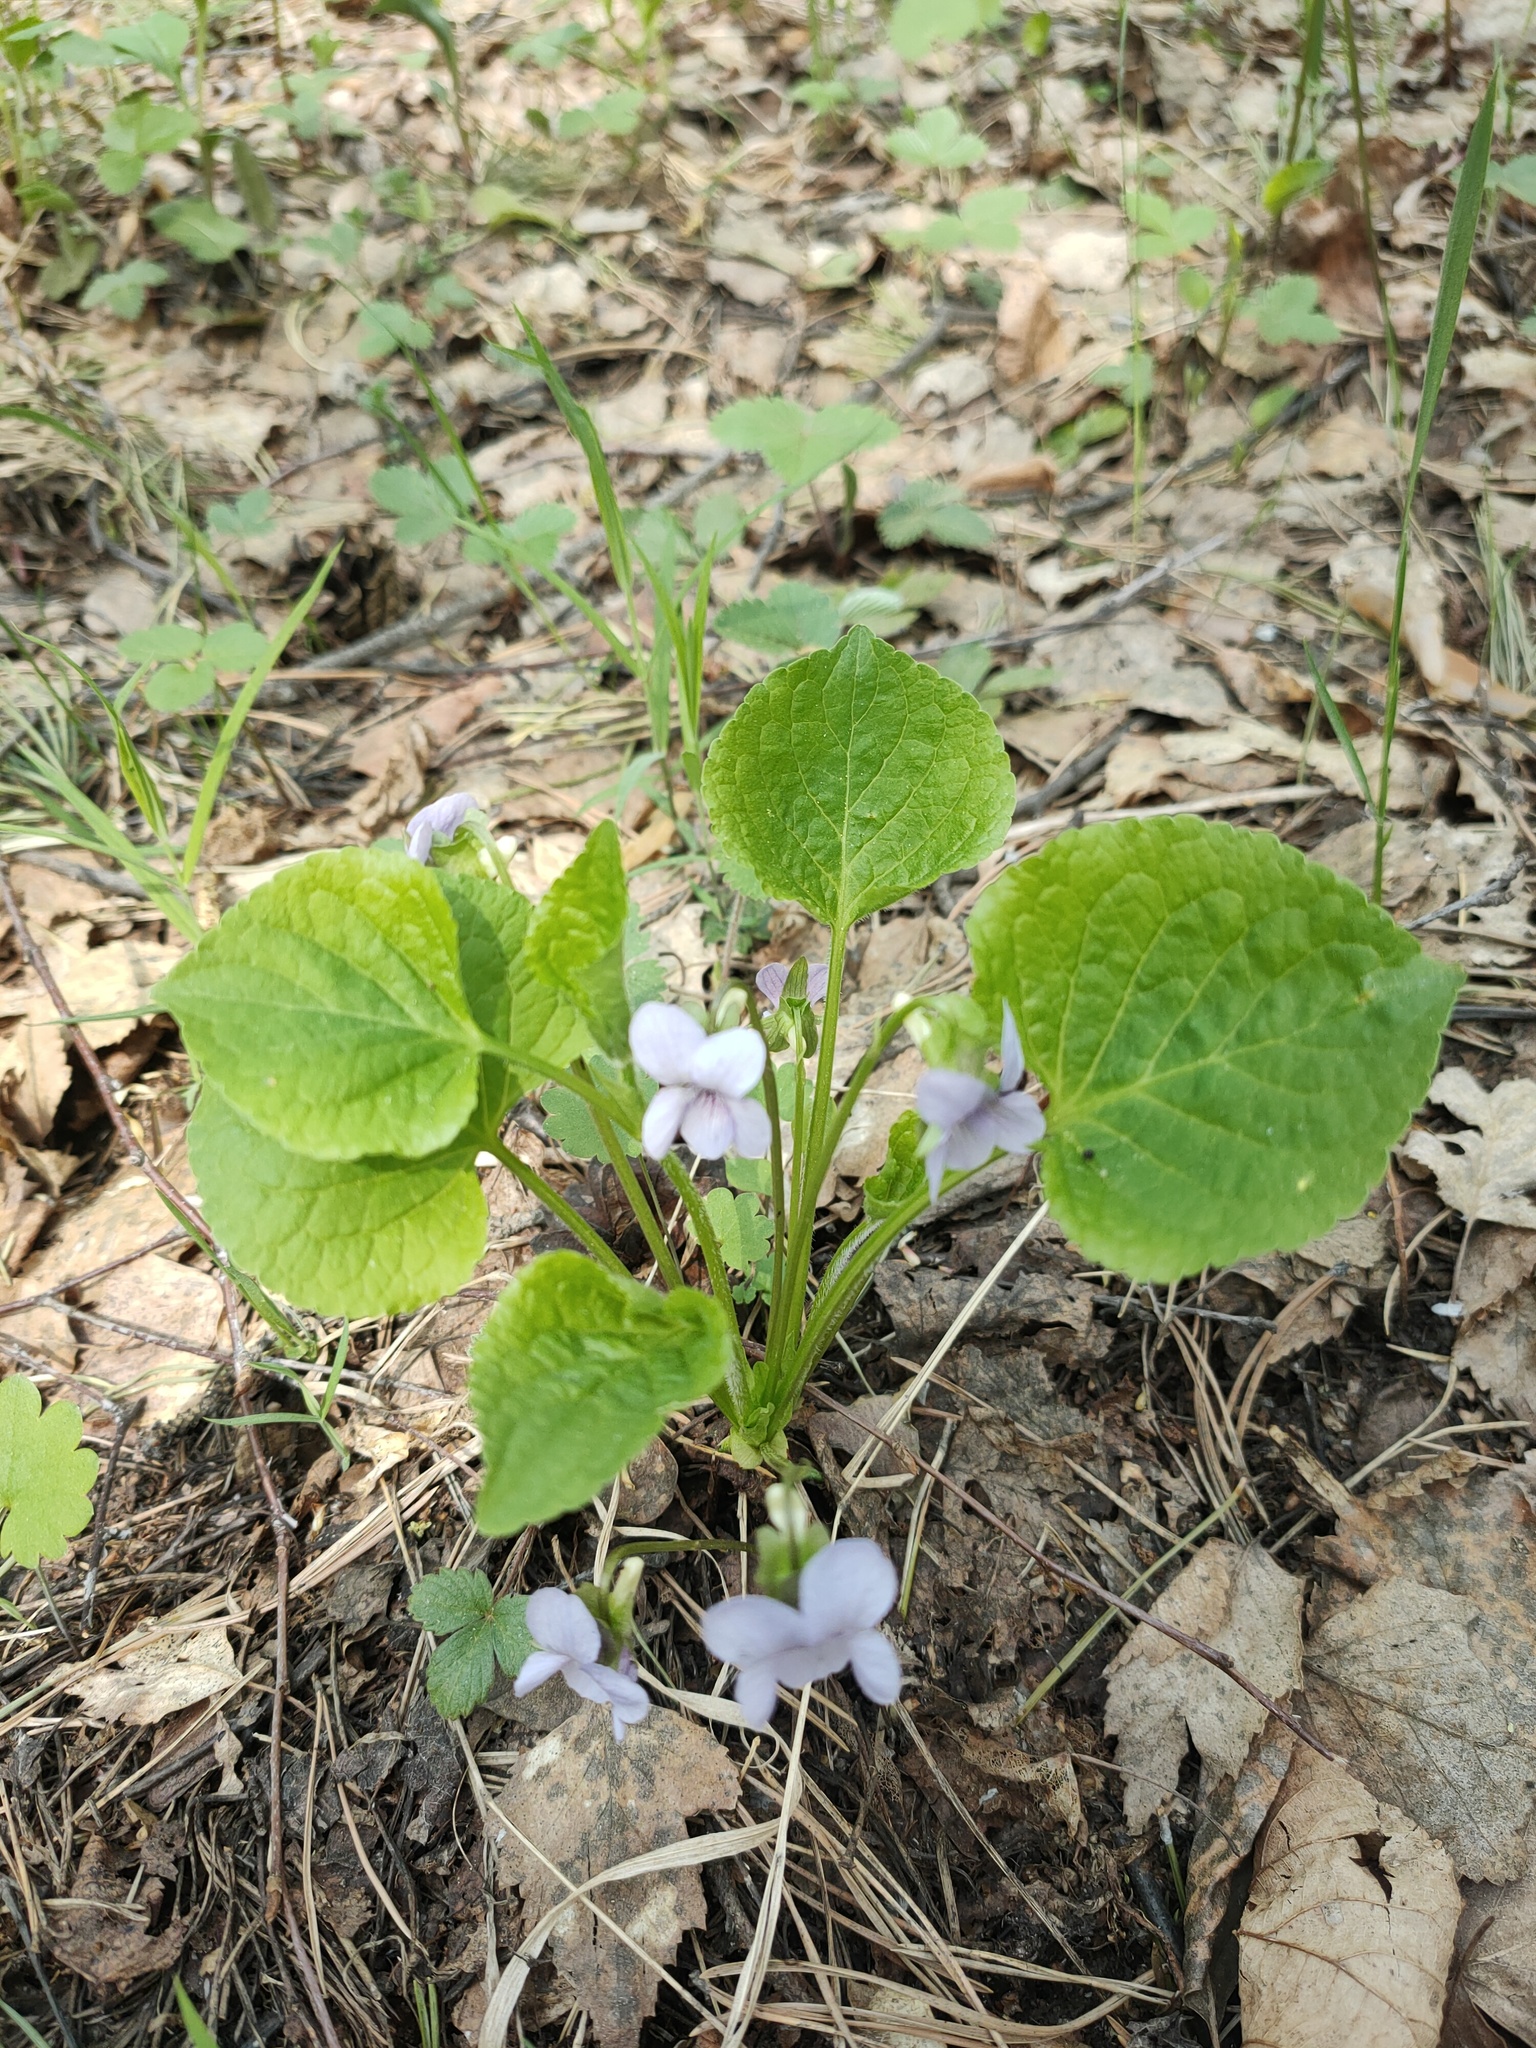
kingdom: Plantae
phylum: Tracheophyta
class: Magnoliopsida
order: Malpighiales
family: Violaceae
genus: Viola
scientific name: Viola mirabilis
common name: Wonder violet
